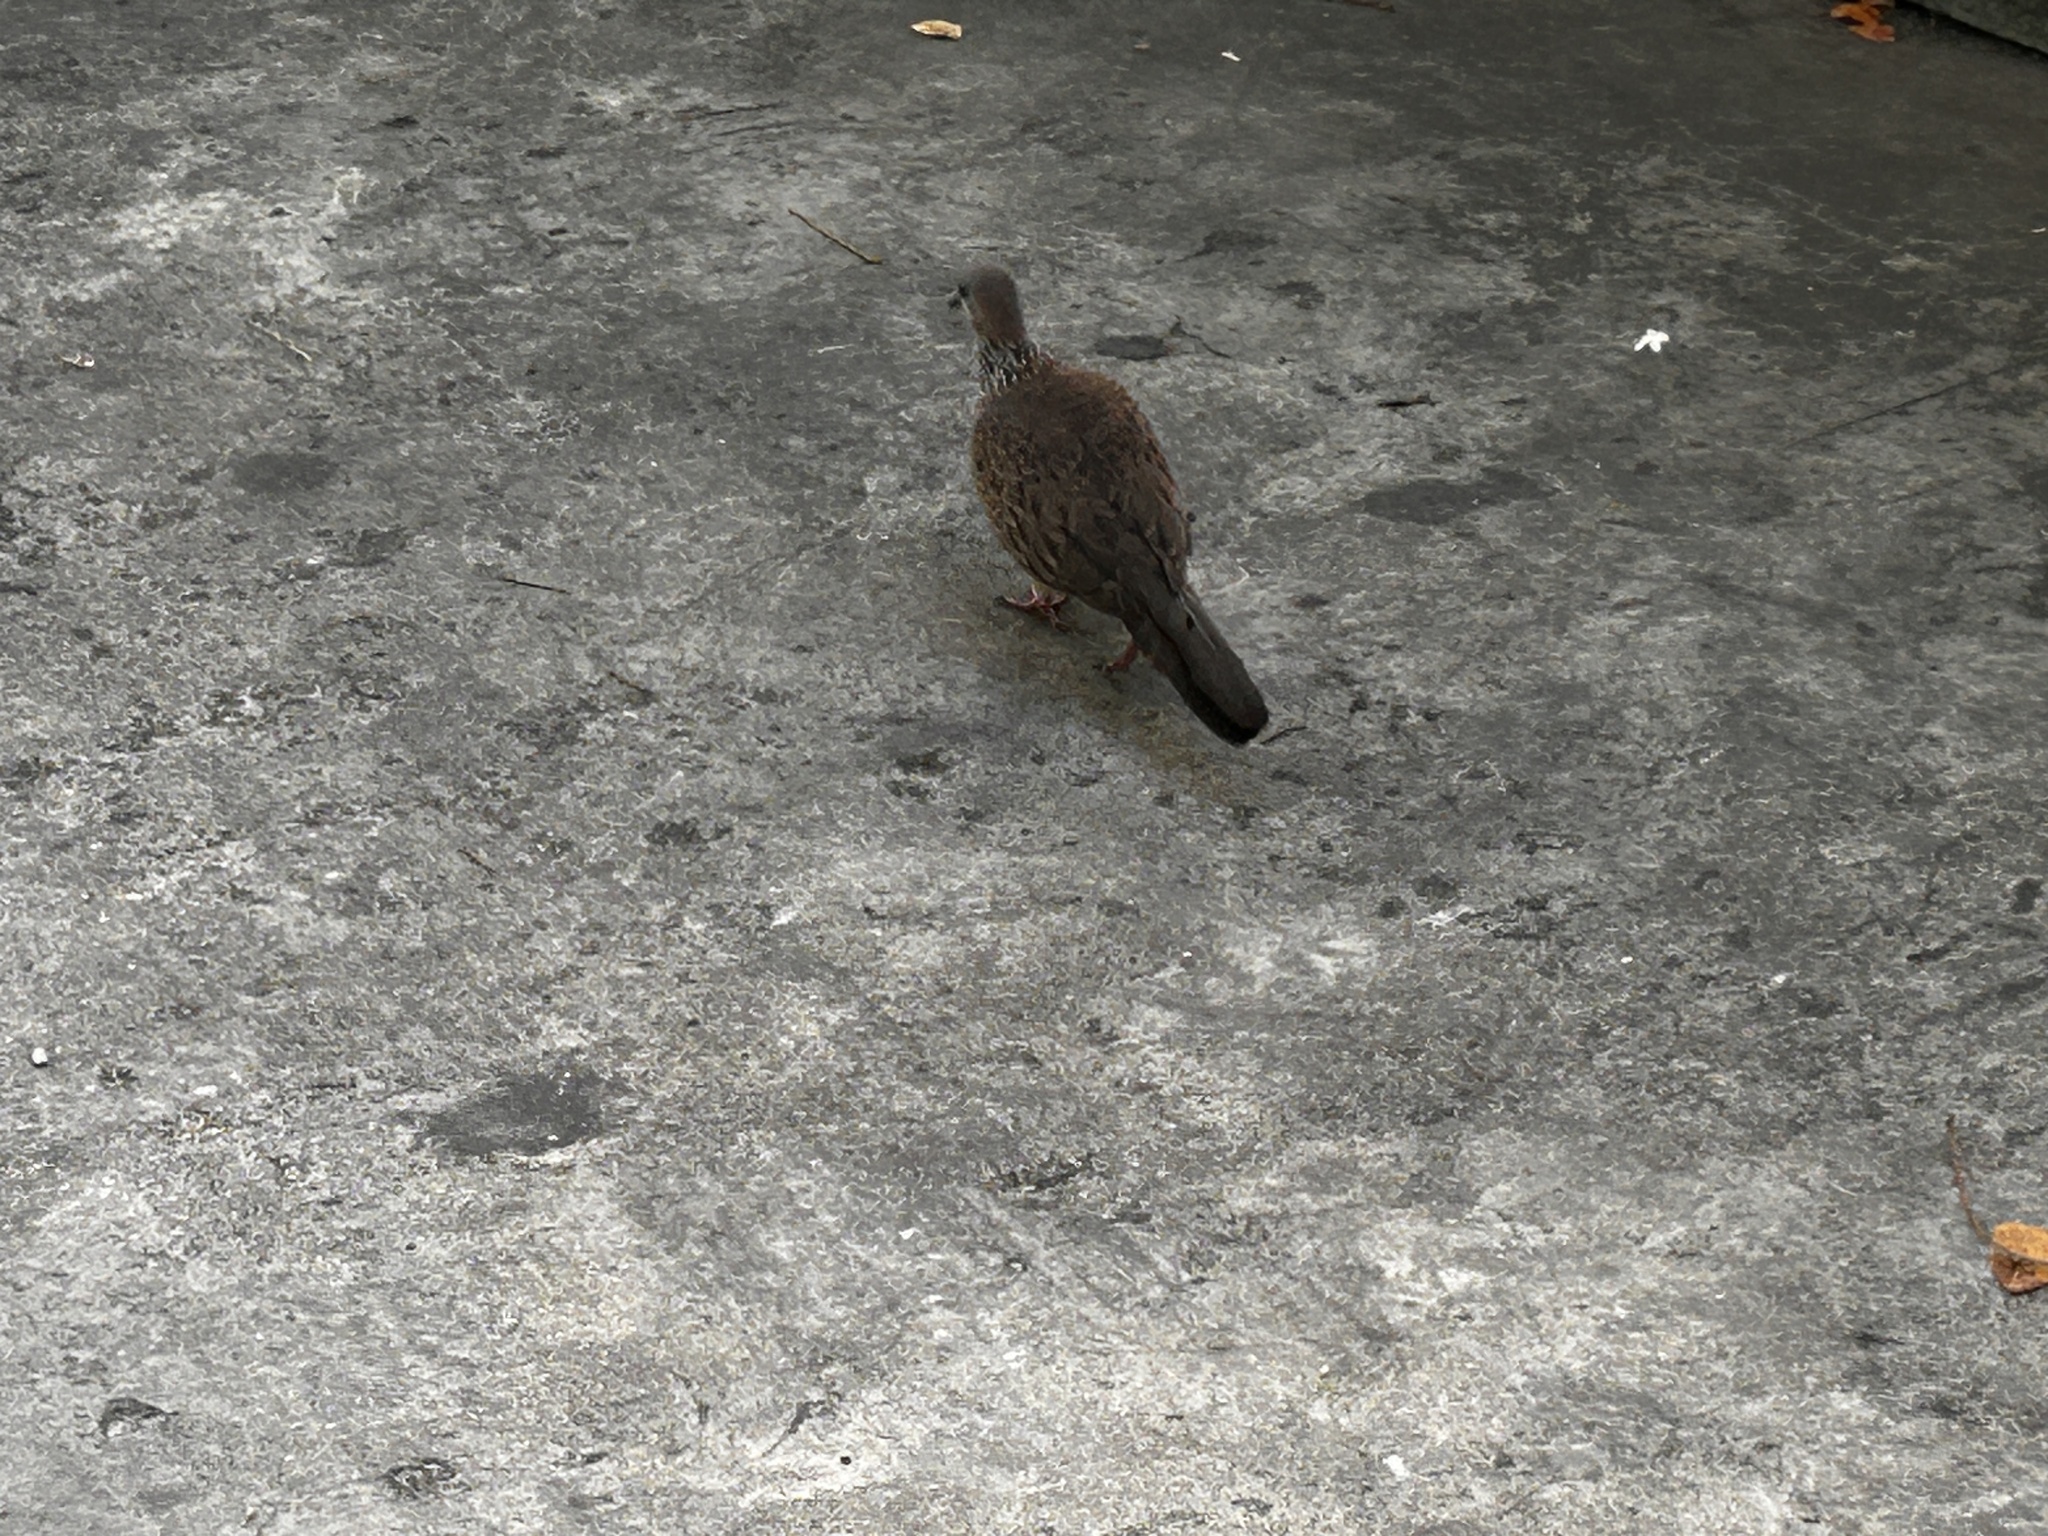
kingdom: Animalia
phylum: Chordata
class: Aves
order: Columbiformes
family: Columbidae
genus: Spilopelia
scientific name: Spilopelia chinensis
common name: Spotted dove
